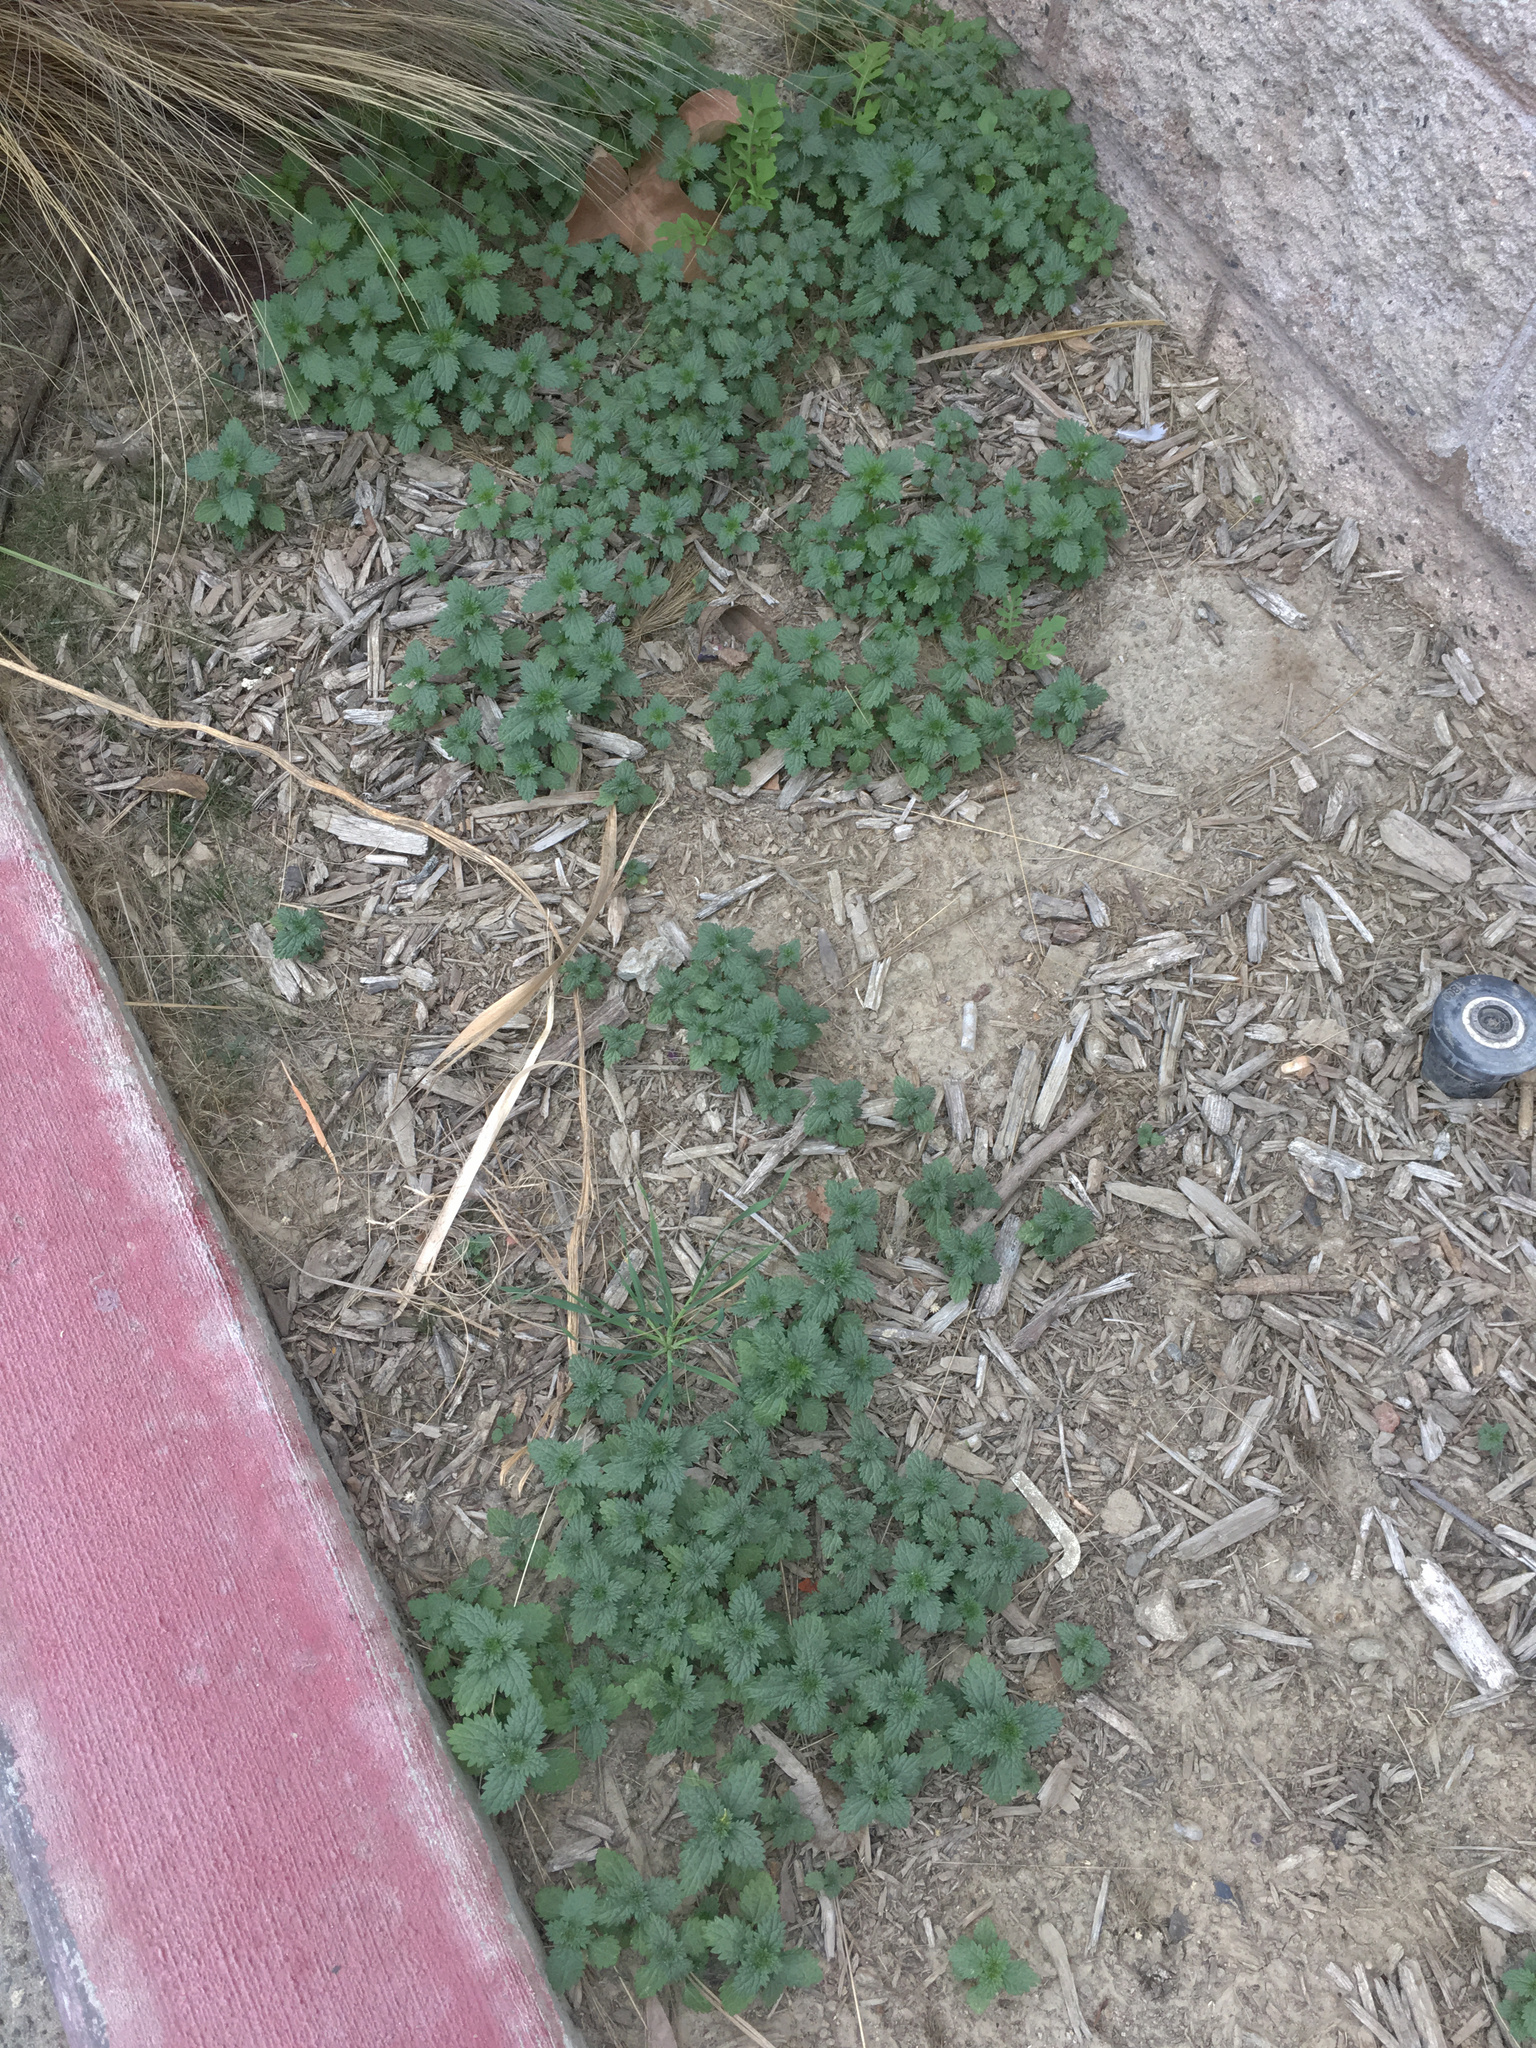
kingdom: Plantae
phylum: Tracheophyta
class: Magnoliopsida
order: Rosales
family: Urticaceae
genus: Urtica
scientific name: Urtica urens
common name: Dwarf nettle
